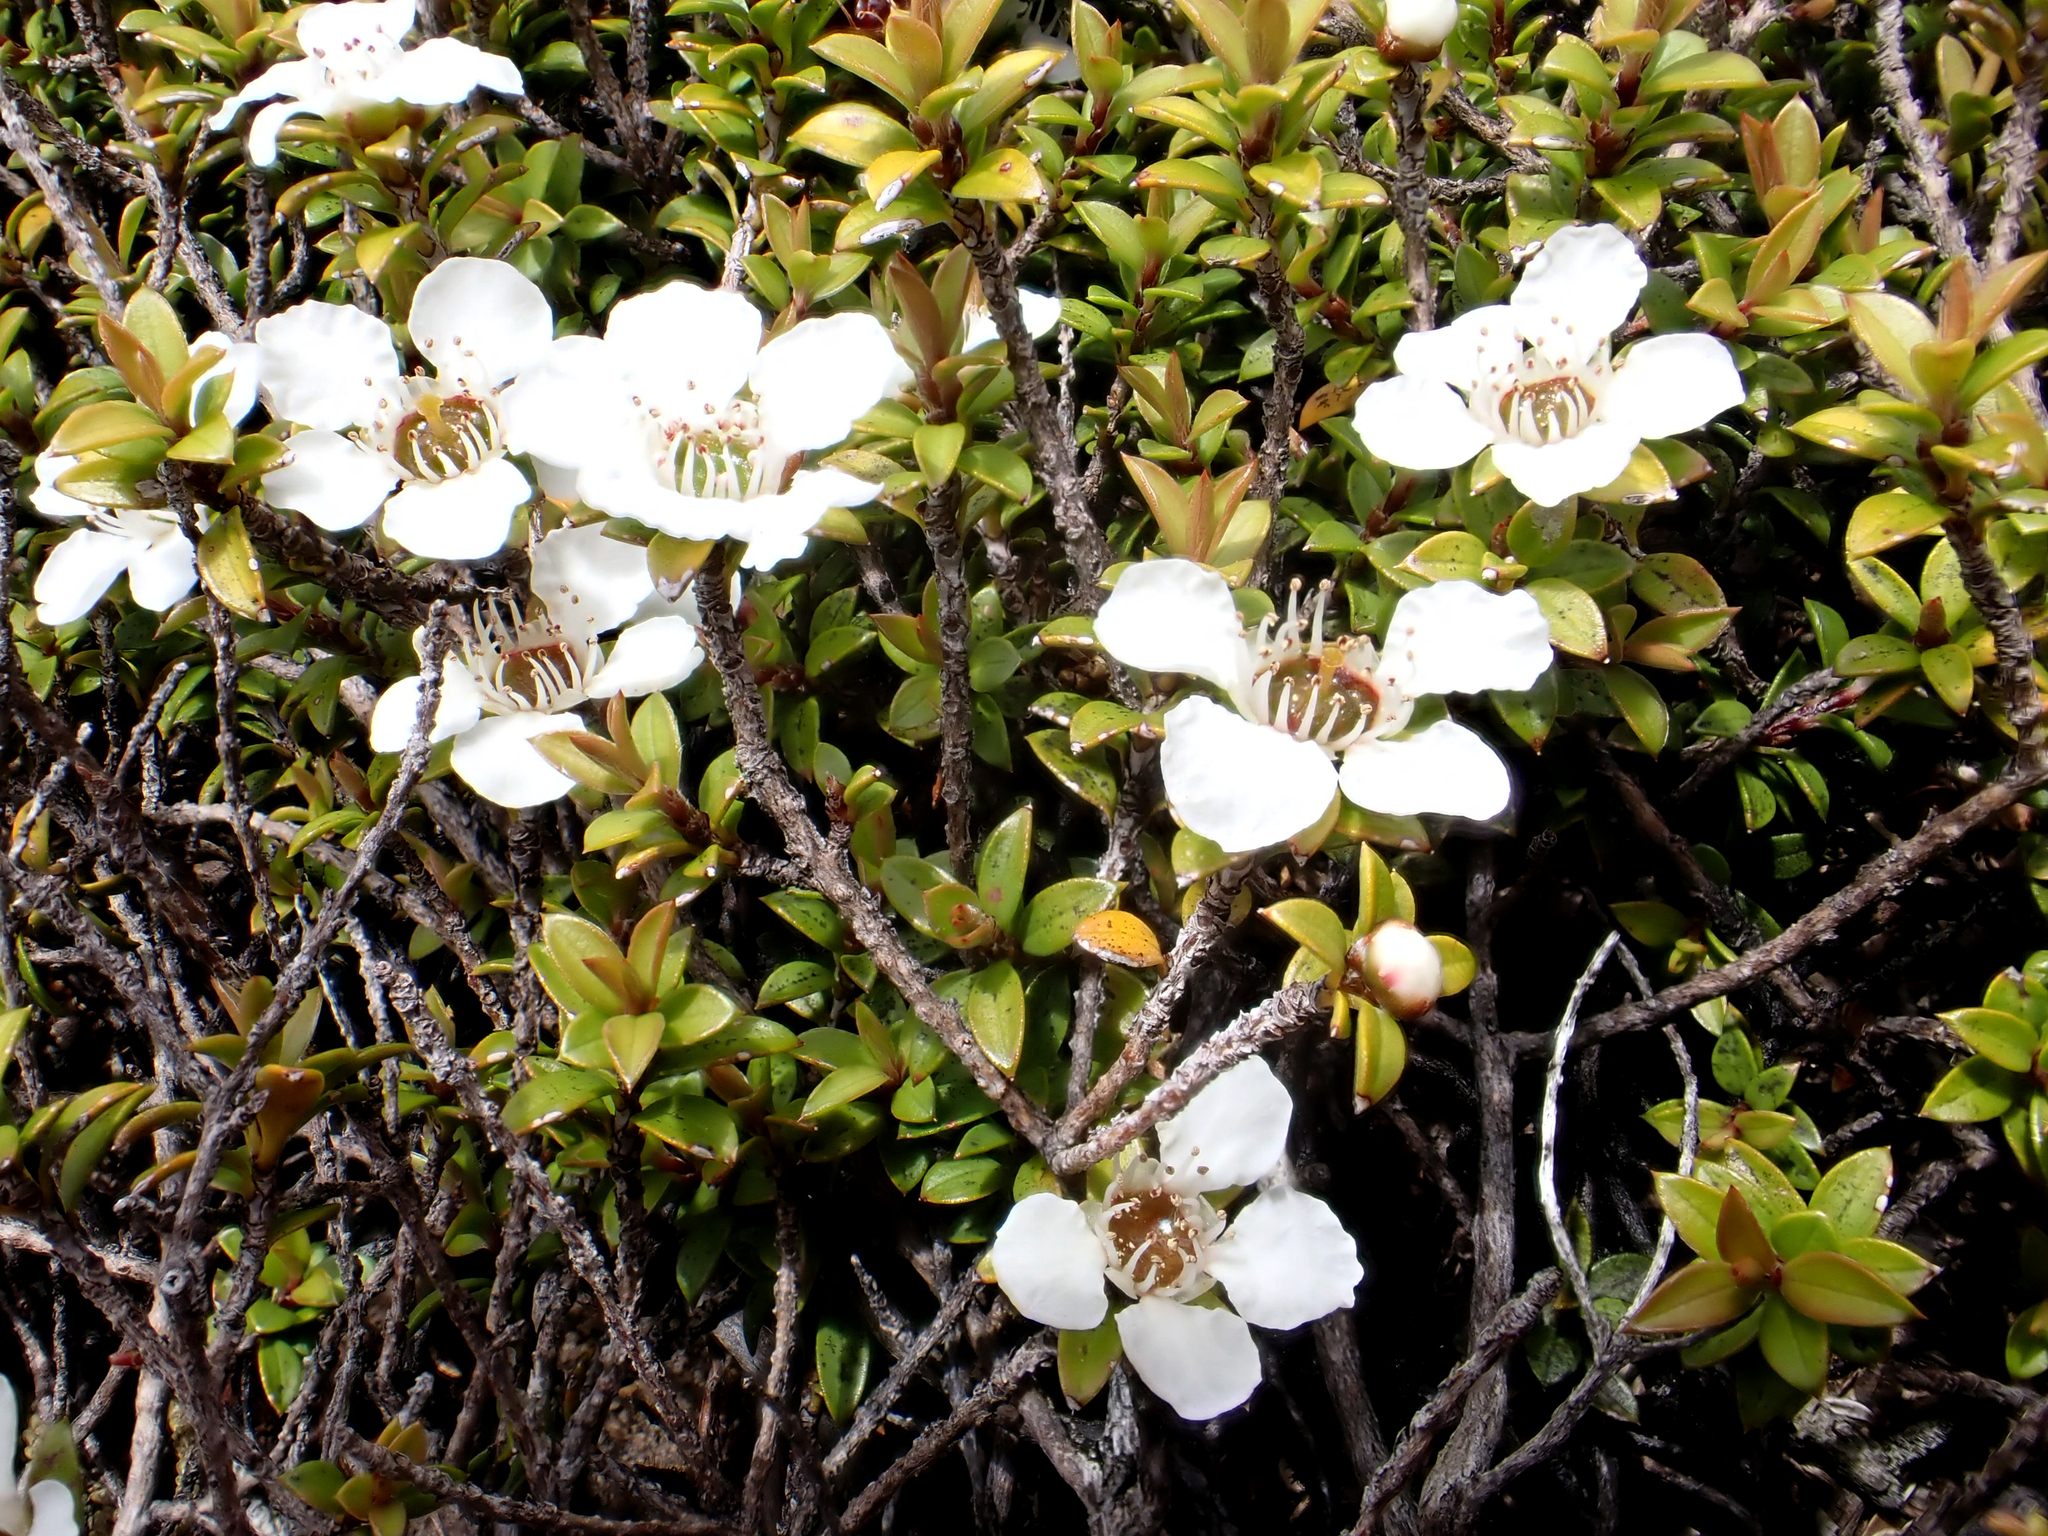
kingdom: Plantae
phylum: Tracheophyta
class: Magnoliopsida
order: Myrtales
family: Myrtaceae
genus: Leptospermum
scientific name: Leptospermum scoparium
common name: Broom tea-tree
